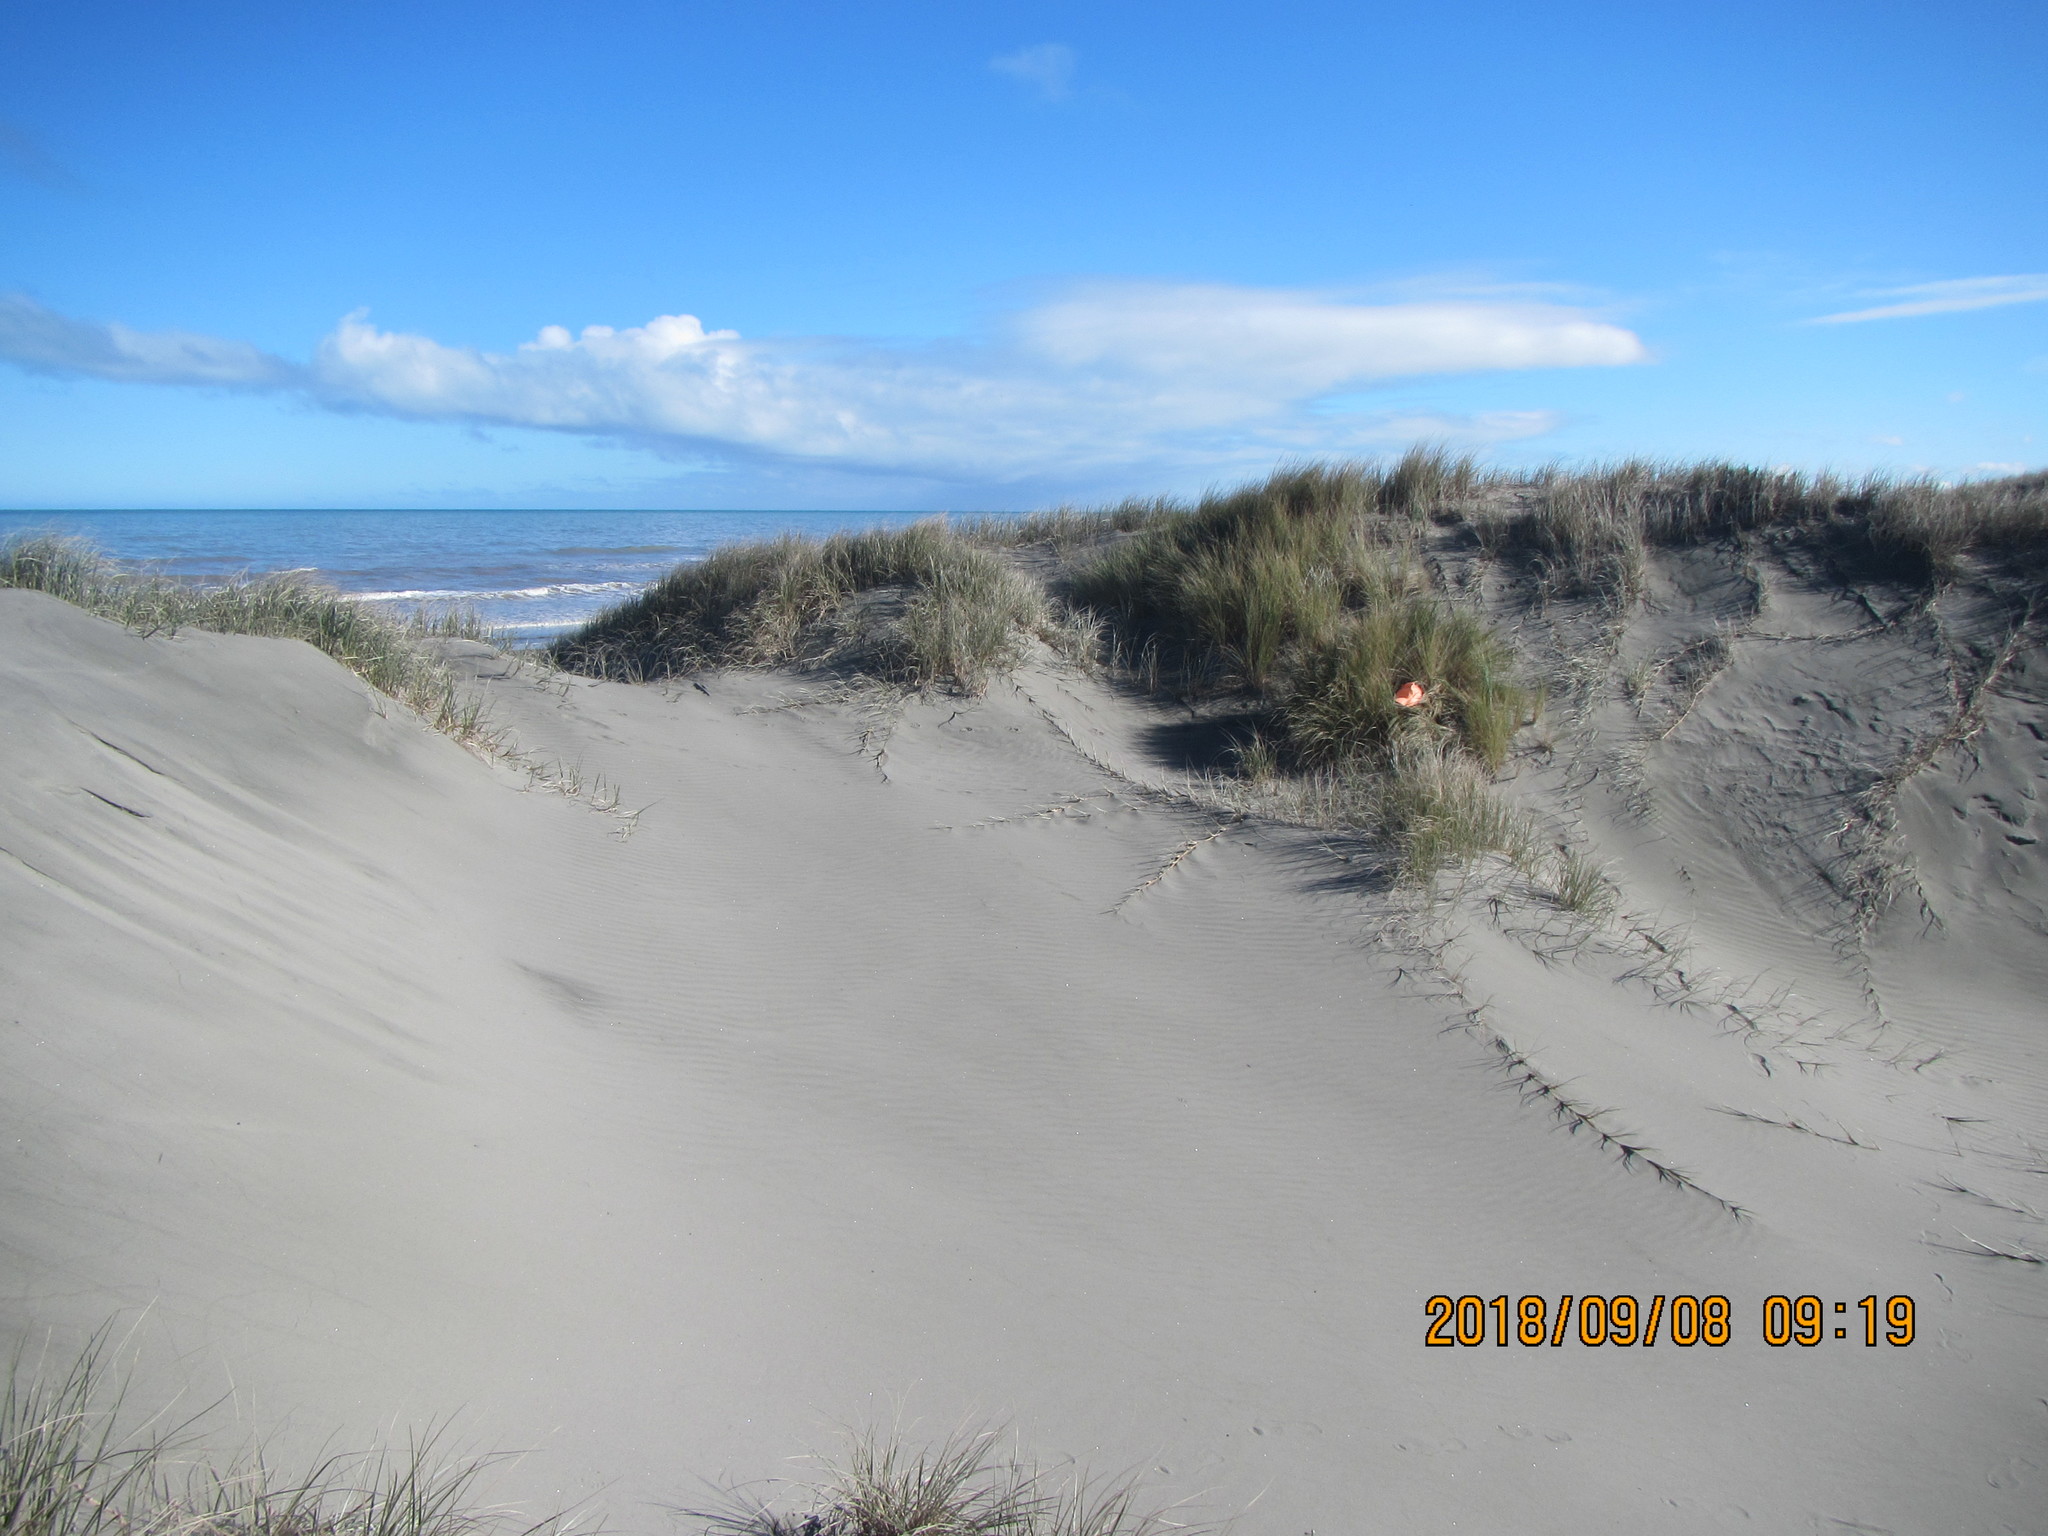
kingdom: Animalia
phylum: Arthropoda
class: Arachnida
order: Araneae
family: Pisauridae
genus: Dolomedes
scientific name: Dolomedes minor
